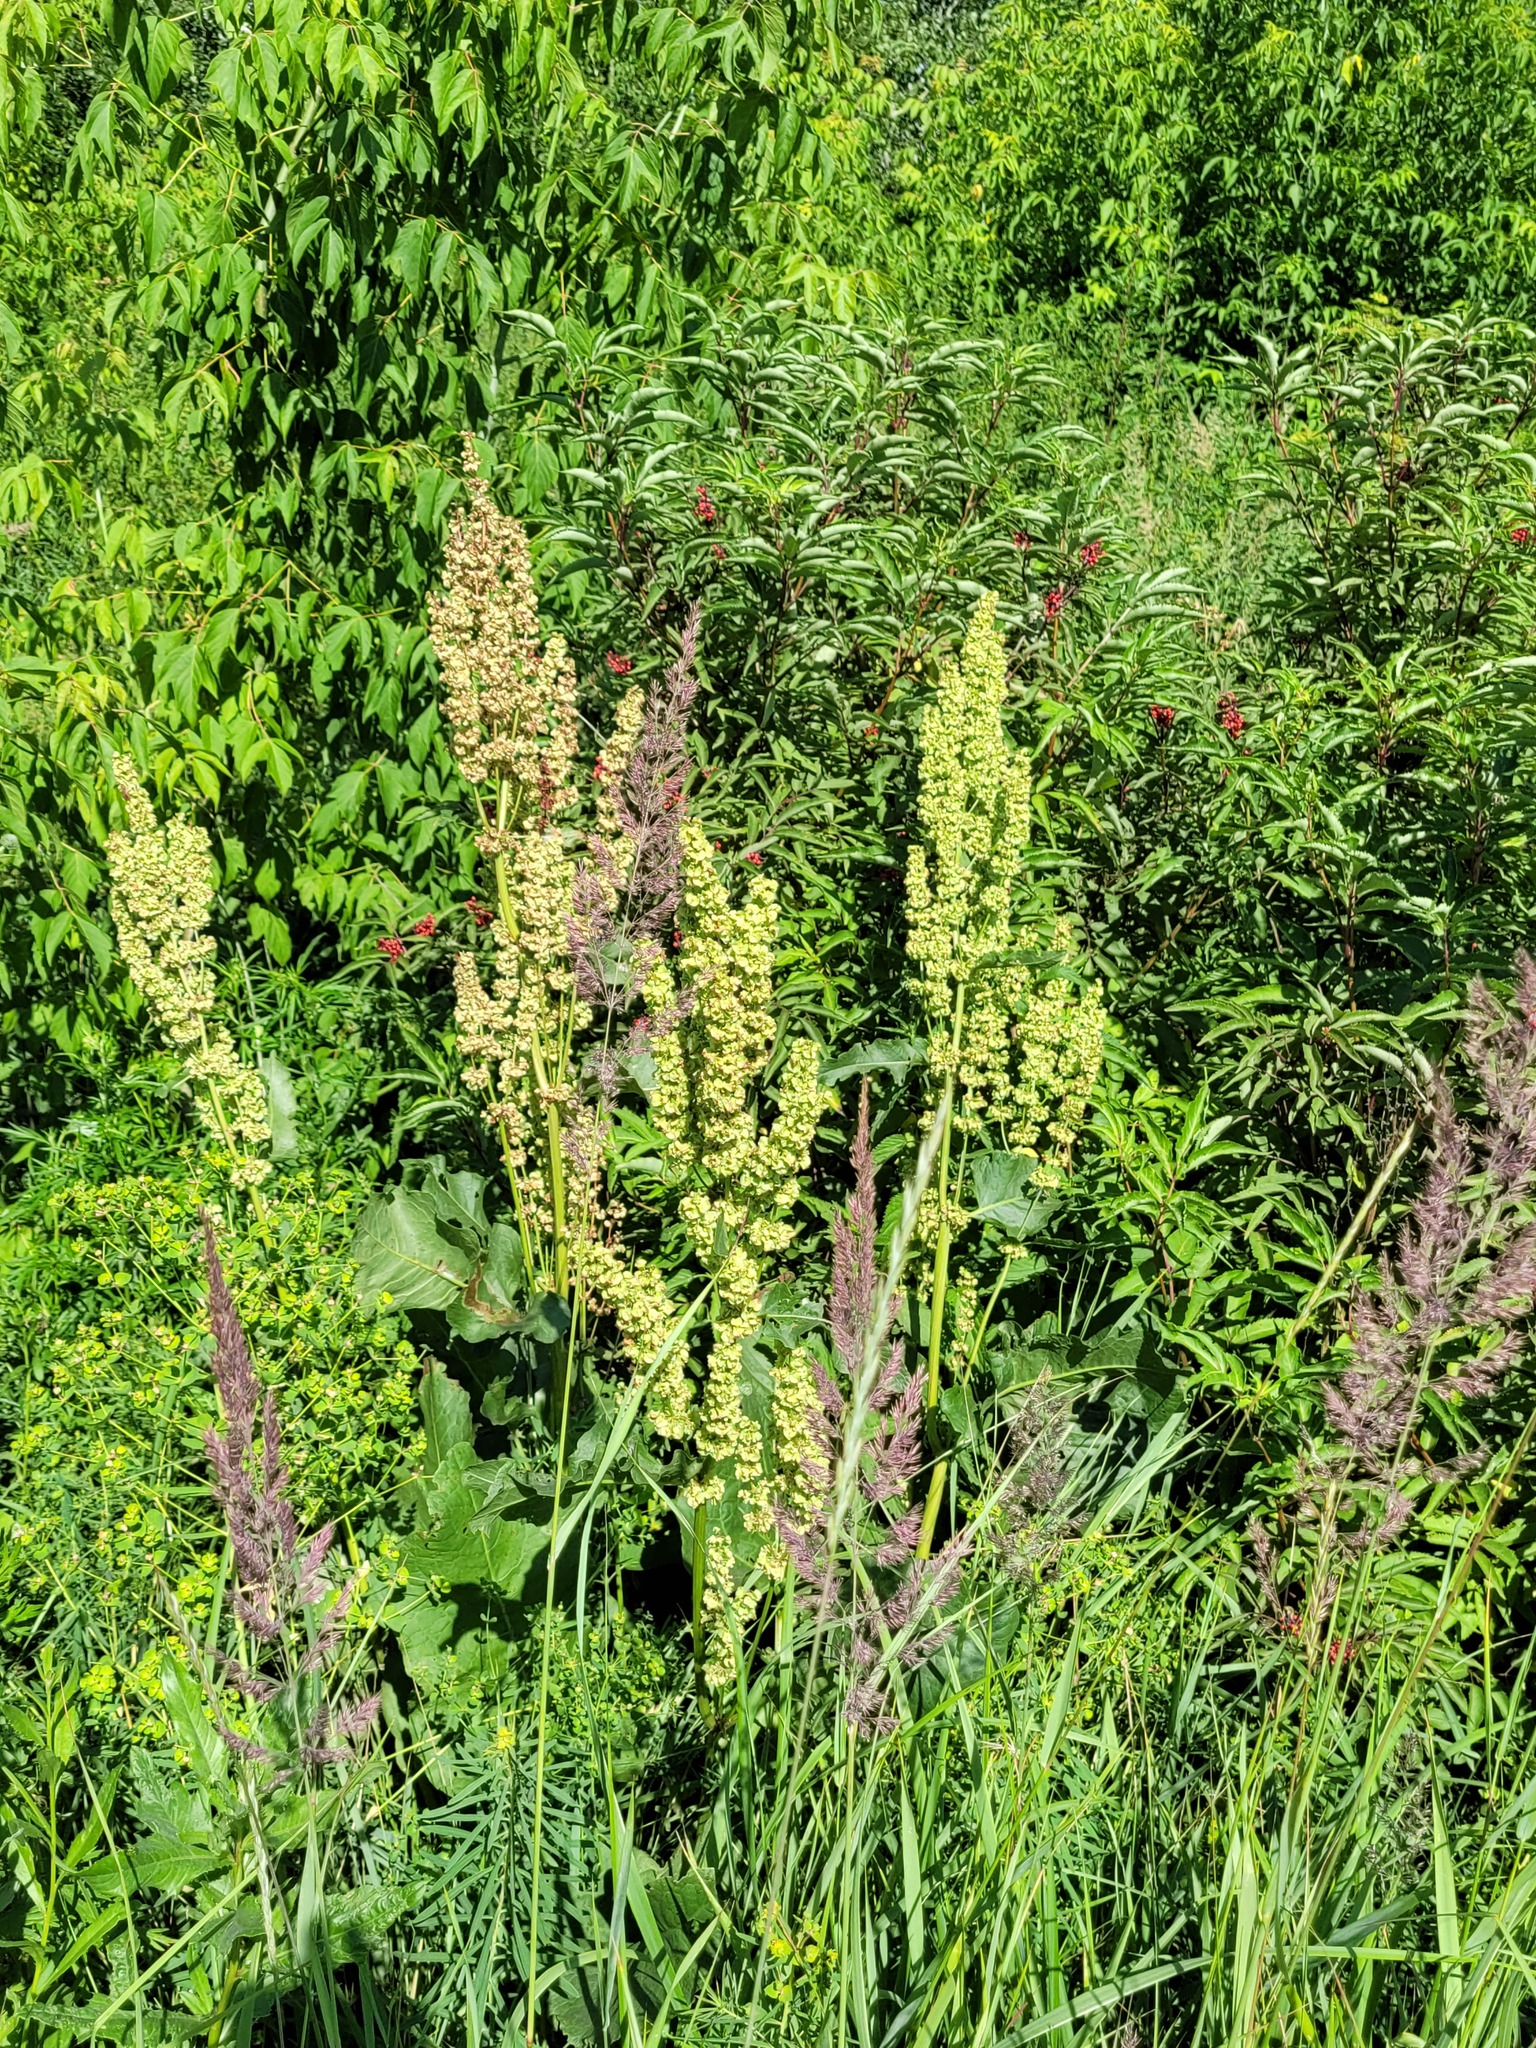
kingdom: Plantae
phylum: Tracheophyta
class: Magnoliopsida
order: Caryophyllales
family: Polygonaceae
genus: Rumex
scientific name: Rumex confertus
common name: Russian dock
